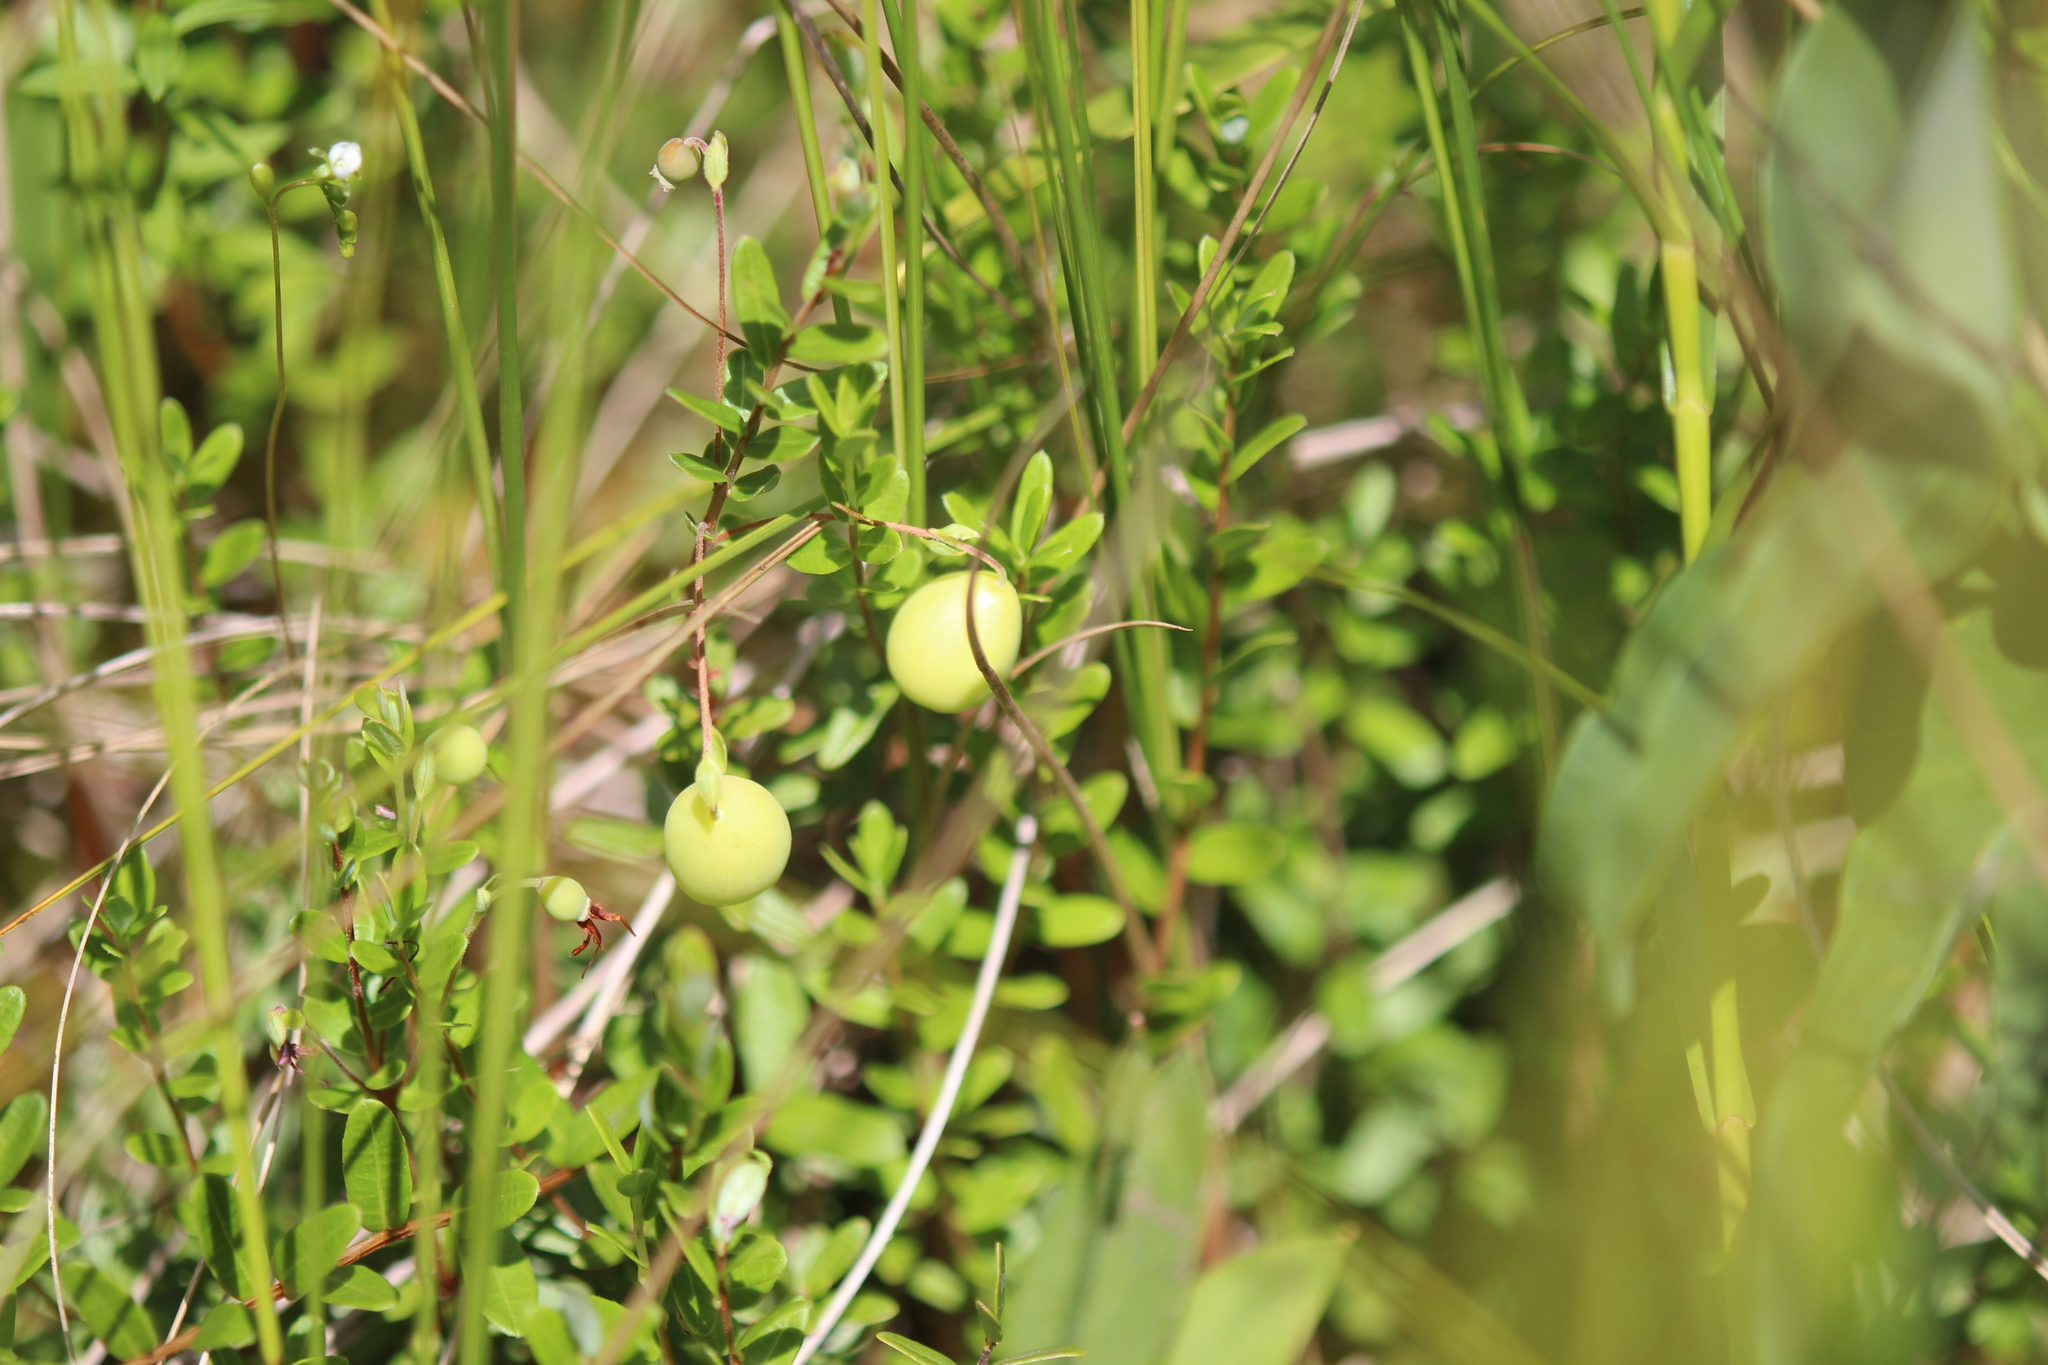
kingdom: Plantae
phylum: Tracheophyta
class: Magnoliopsida
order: Ericales
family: Ericaceae
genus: Vaccinium
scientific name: Vaccinium macrocarpon
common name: American cranberry
